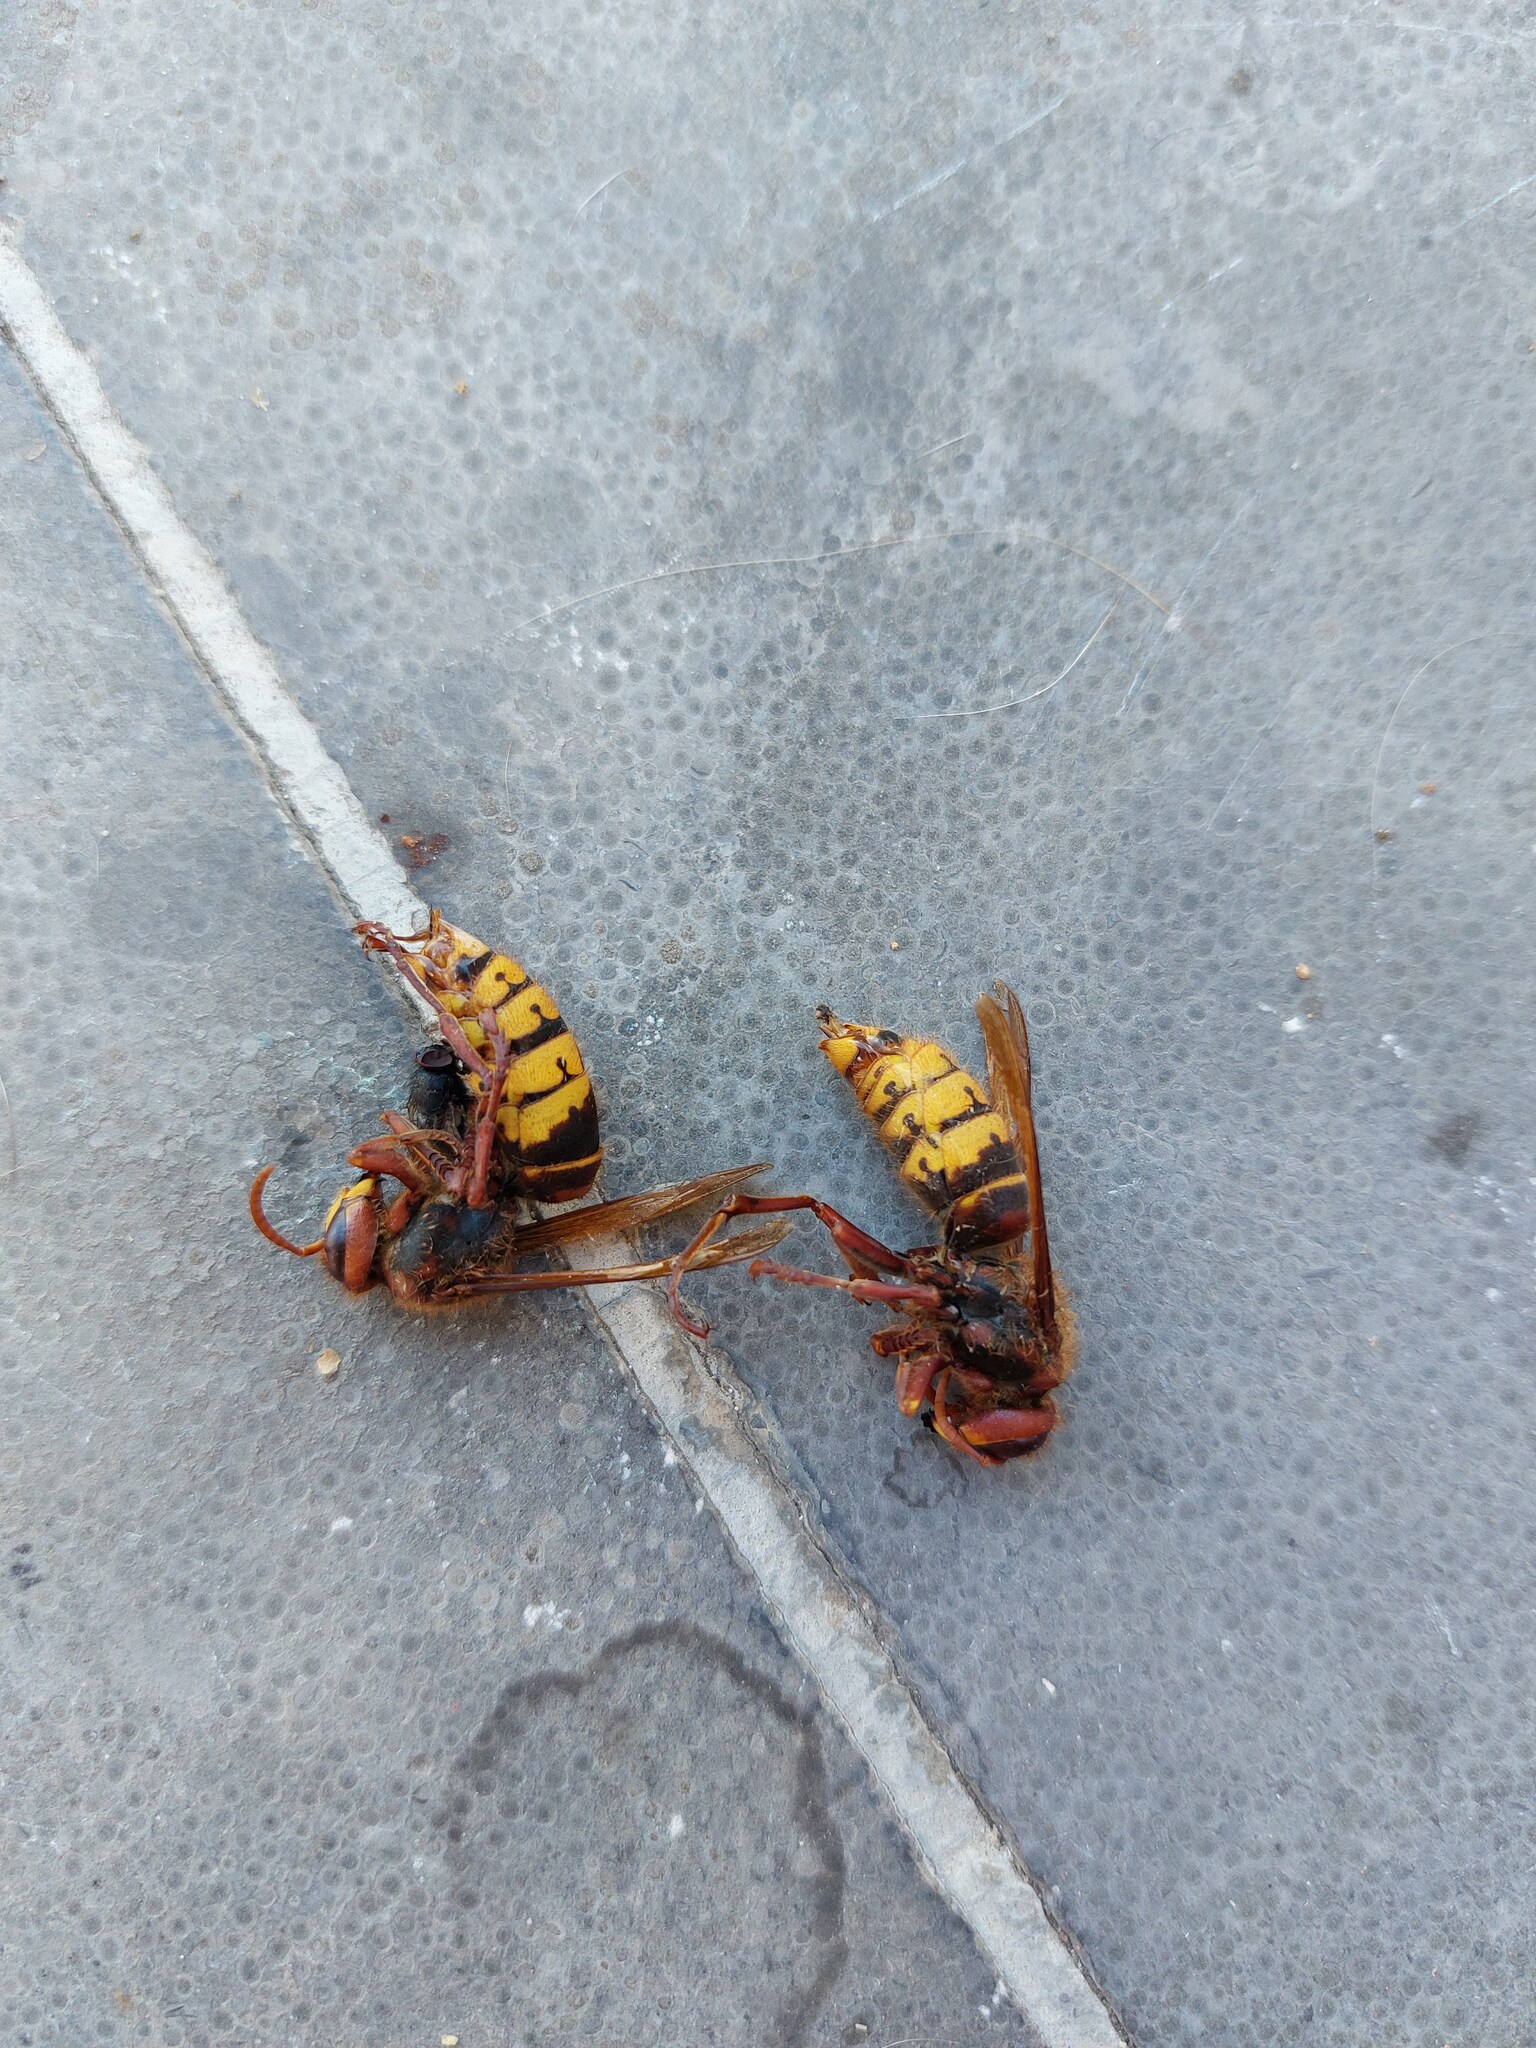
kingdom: Animalia
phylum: Arthropoda
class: Insecta
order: Hymenoptera
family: Vespidae
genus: Vespa
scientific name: Vespa crabro
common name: Hornet
